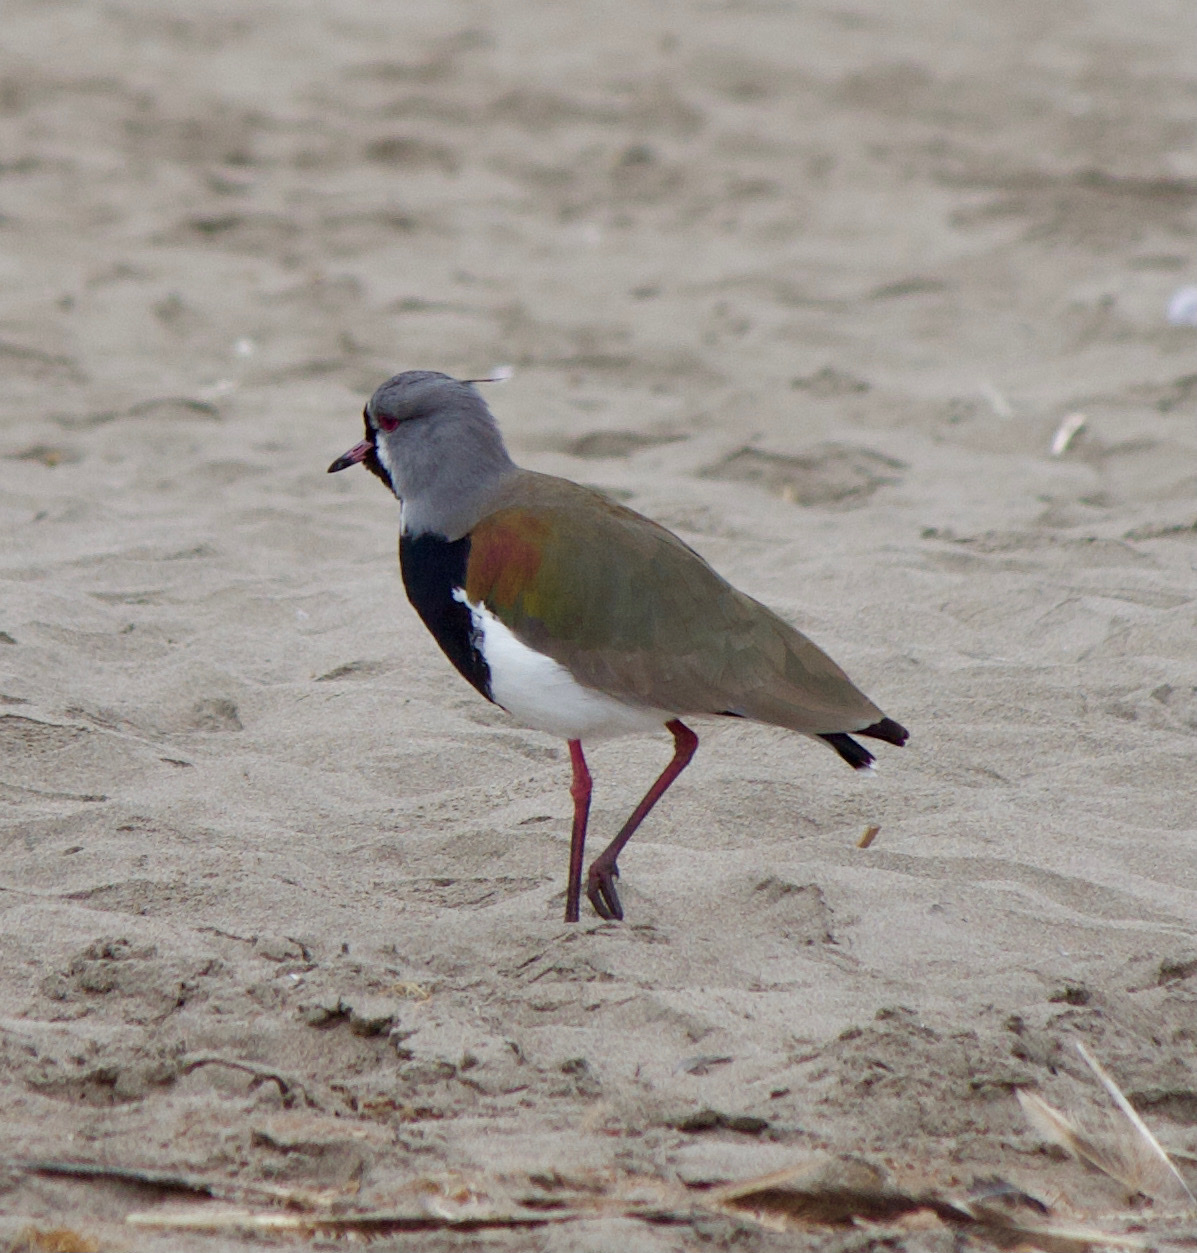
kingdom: Animalia
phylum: Chordata
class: Aves
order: Charadriiformes
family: Charadriidae
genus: Vanellus
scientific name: Vanellus chilensis
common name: Southern lapwing
